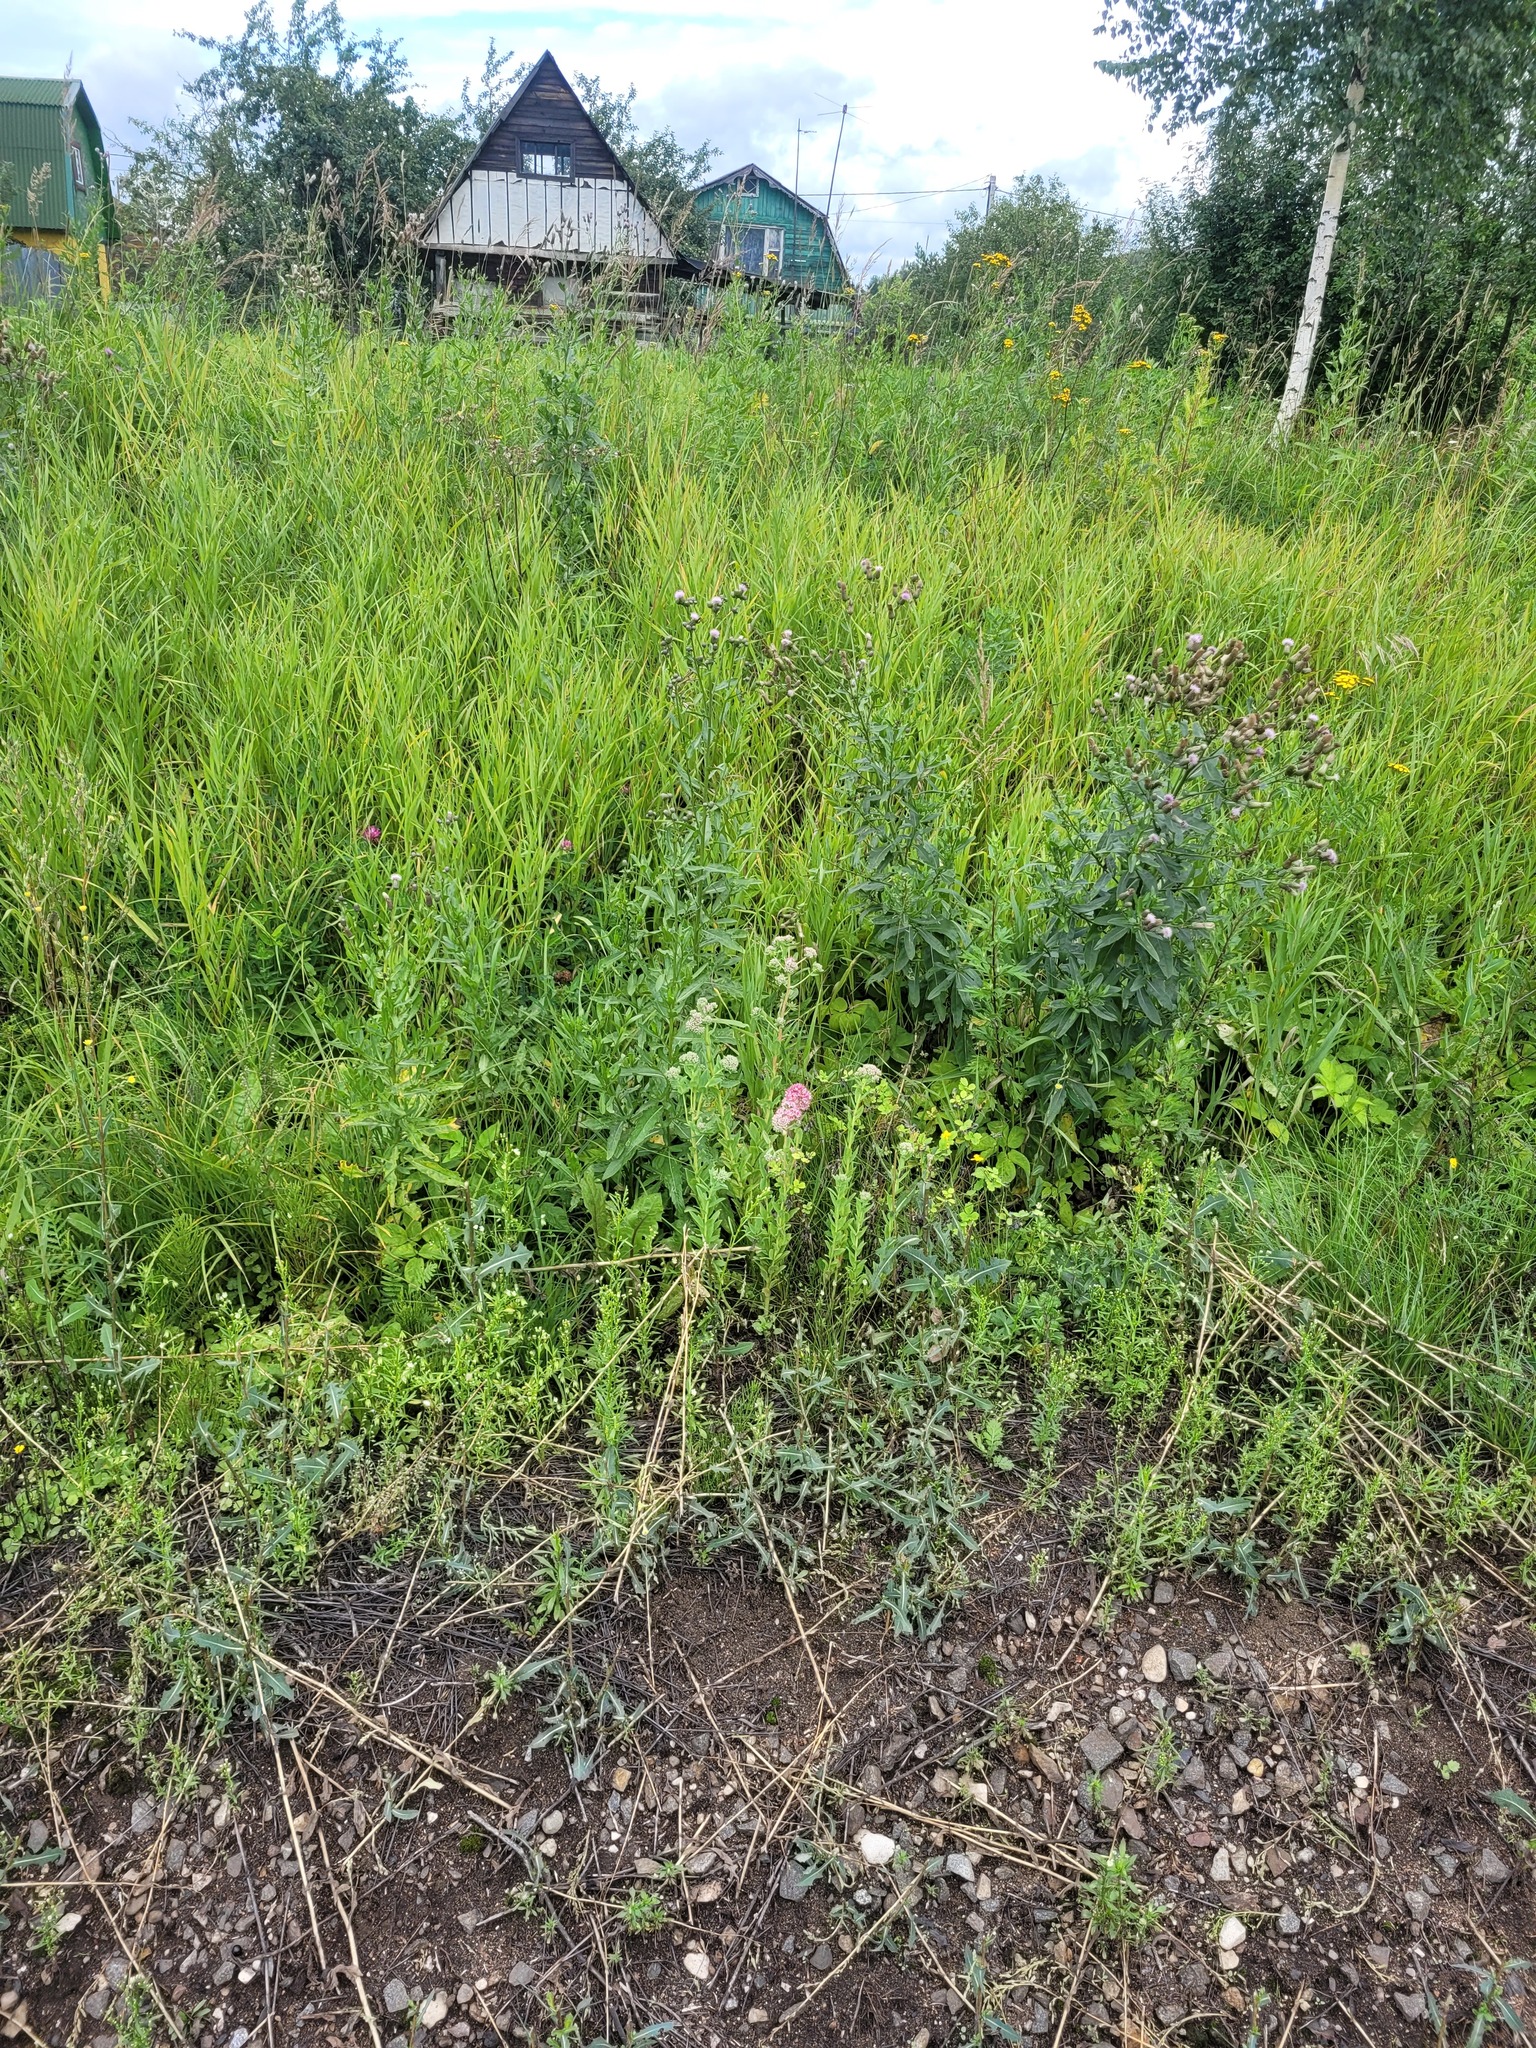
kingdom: Plantae
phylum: Tracheophyta
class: Magnoliopsida
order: Saxifragales
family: Crassulaceae
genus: Hylotelephium
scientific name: Hylotelephium telephium
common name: Live-forever
